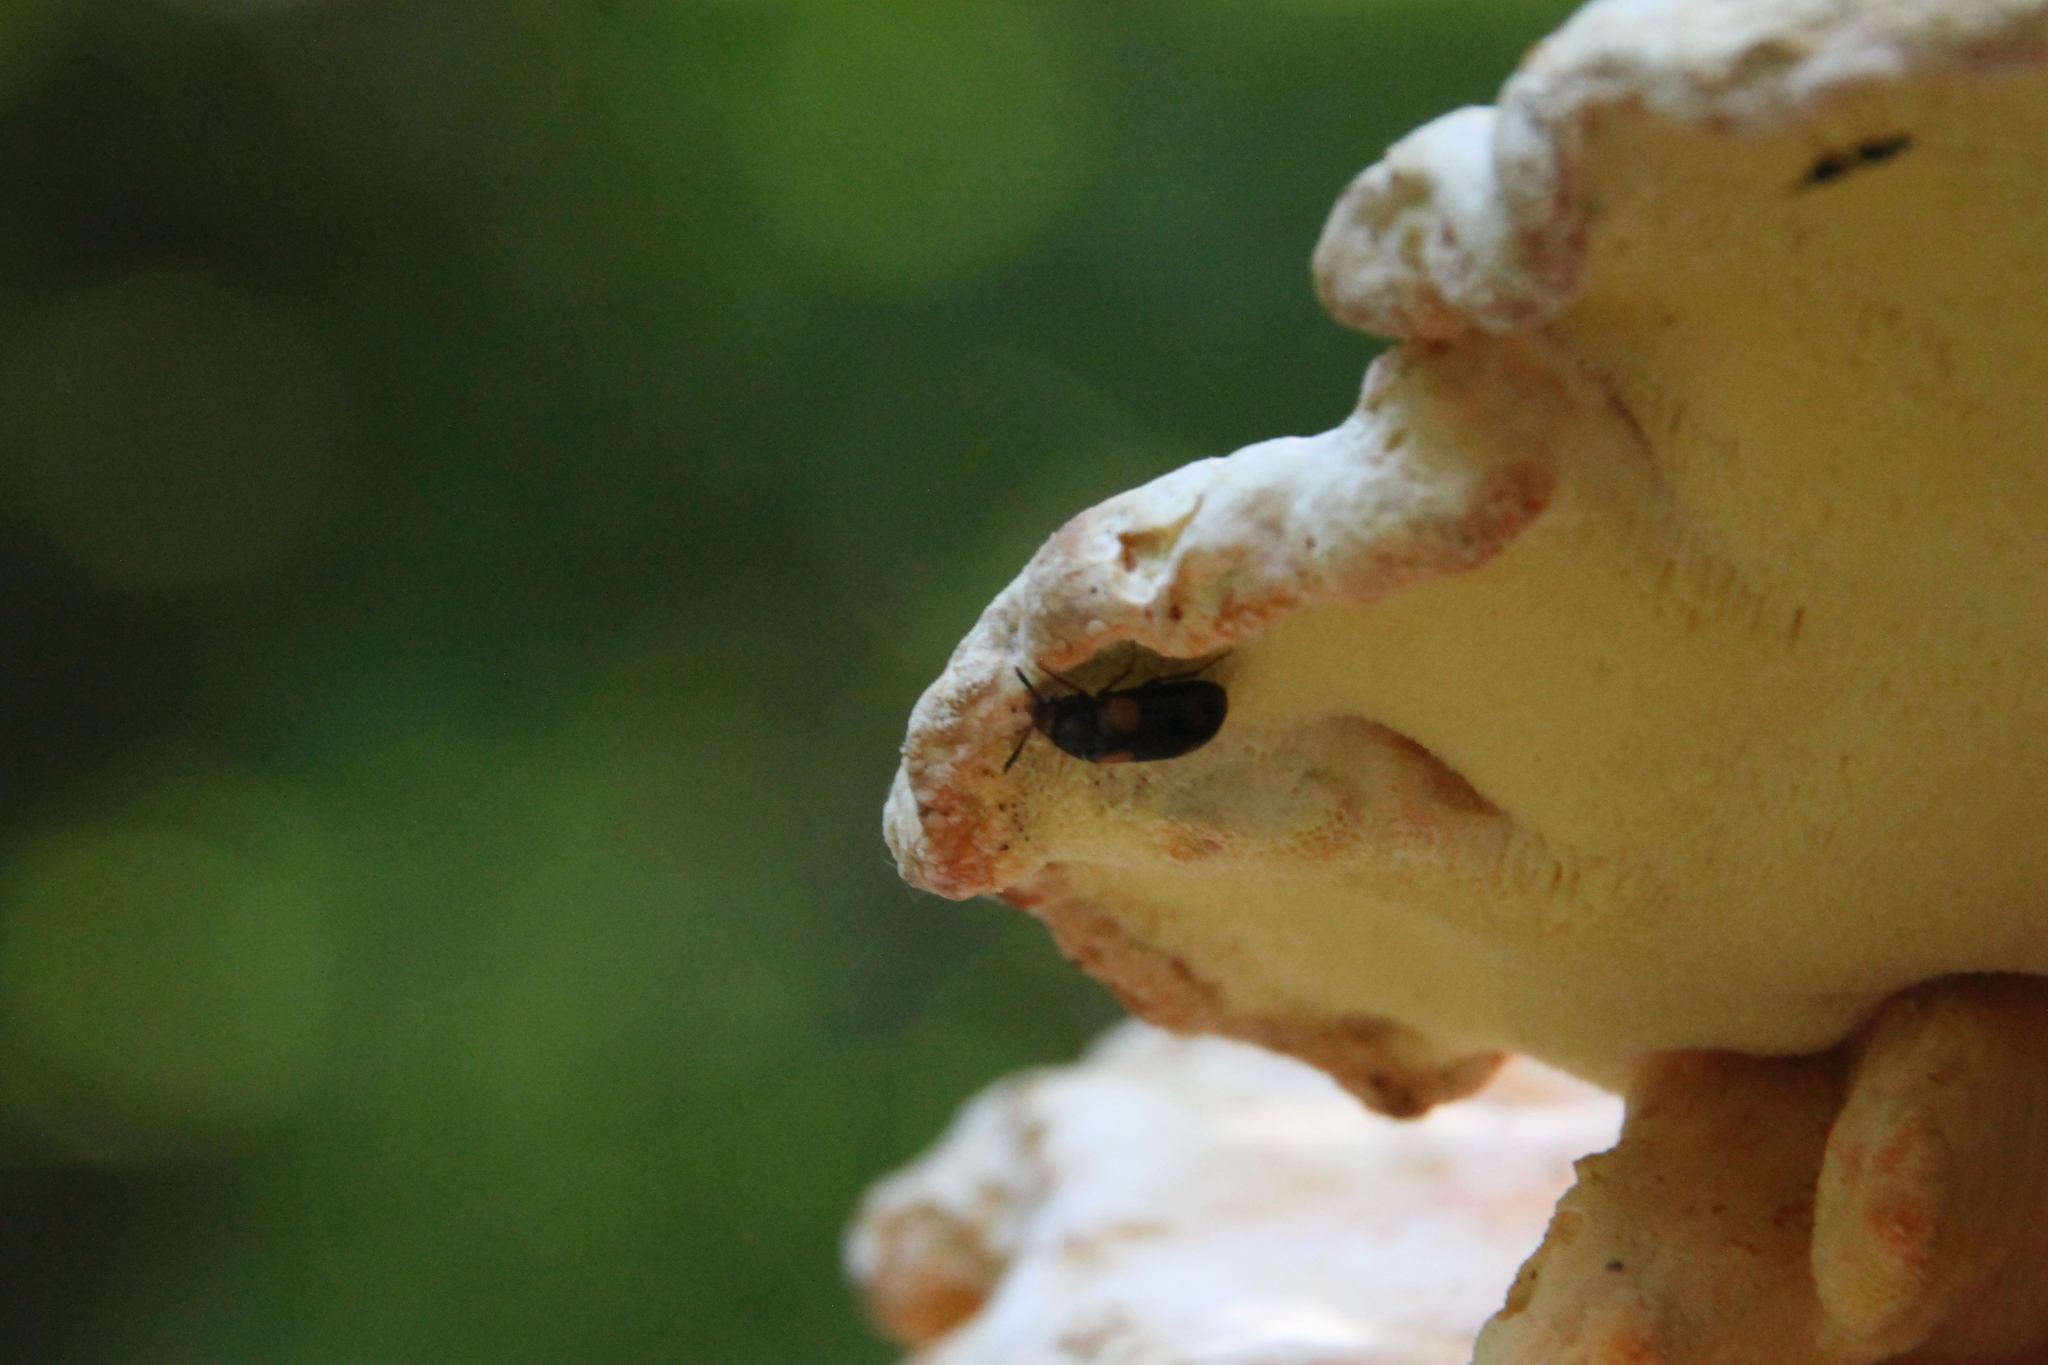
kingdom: Animalia
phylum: Arthropoda
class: Insecta
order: Coleoptera
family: Mycetophagidae
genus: Mycetophagus
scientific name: Mycetophagus quadripustulatus
